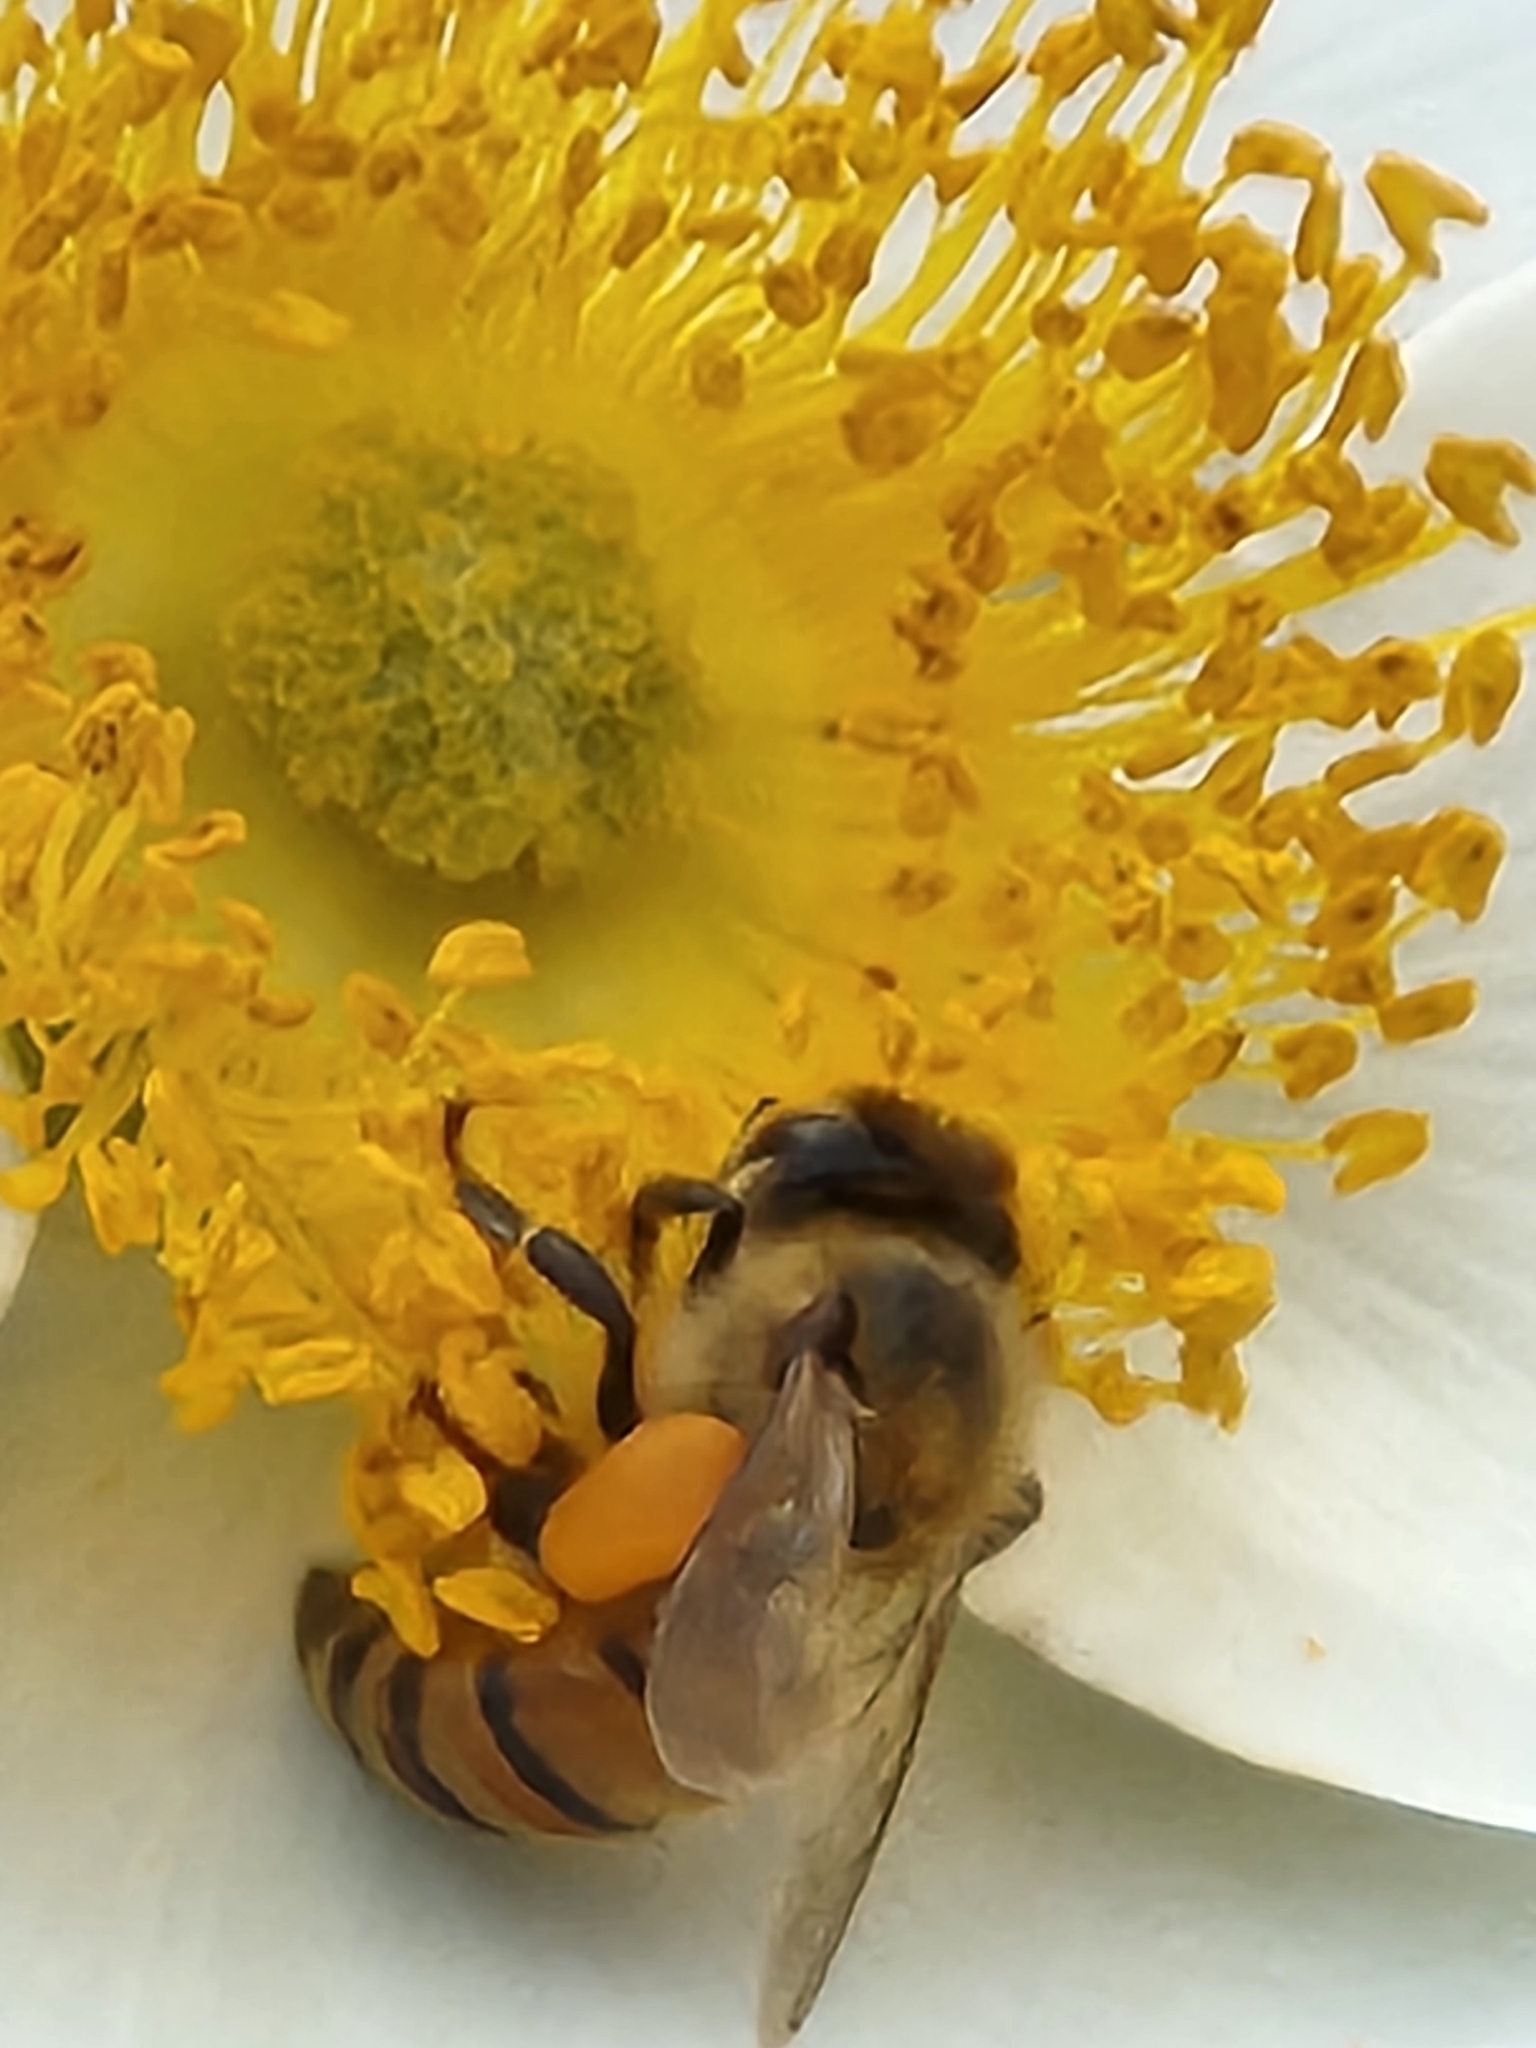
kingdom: Animalia
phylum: Arthropoda
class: Insecta
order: Hymenoptera
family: Apidae
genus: Apis
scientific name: Apis mellifera
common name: Honey bee
